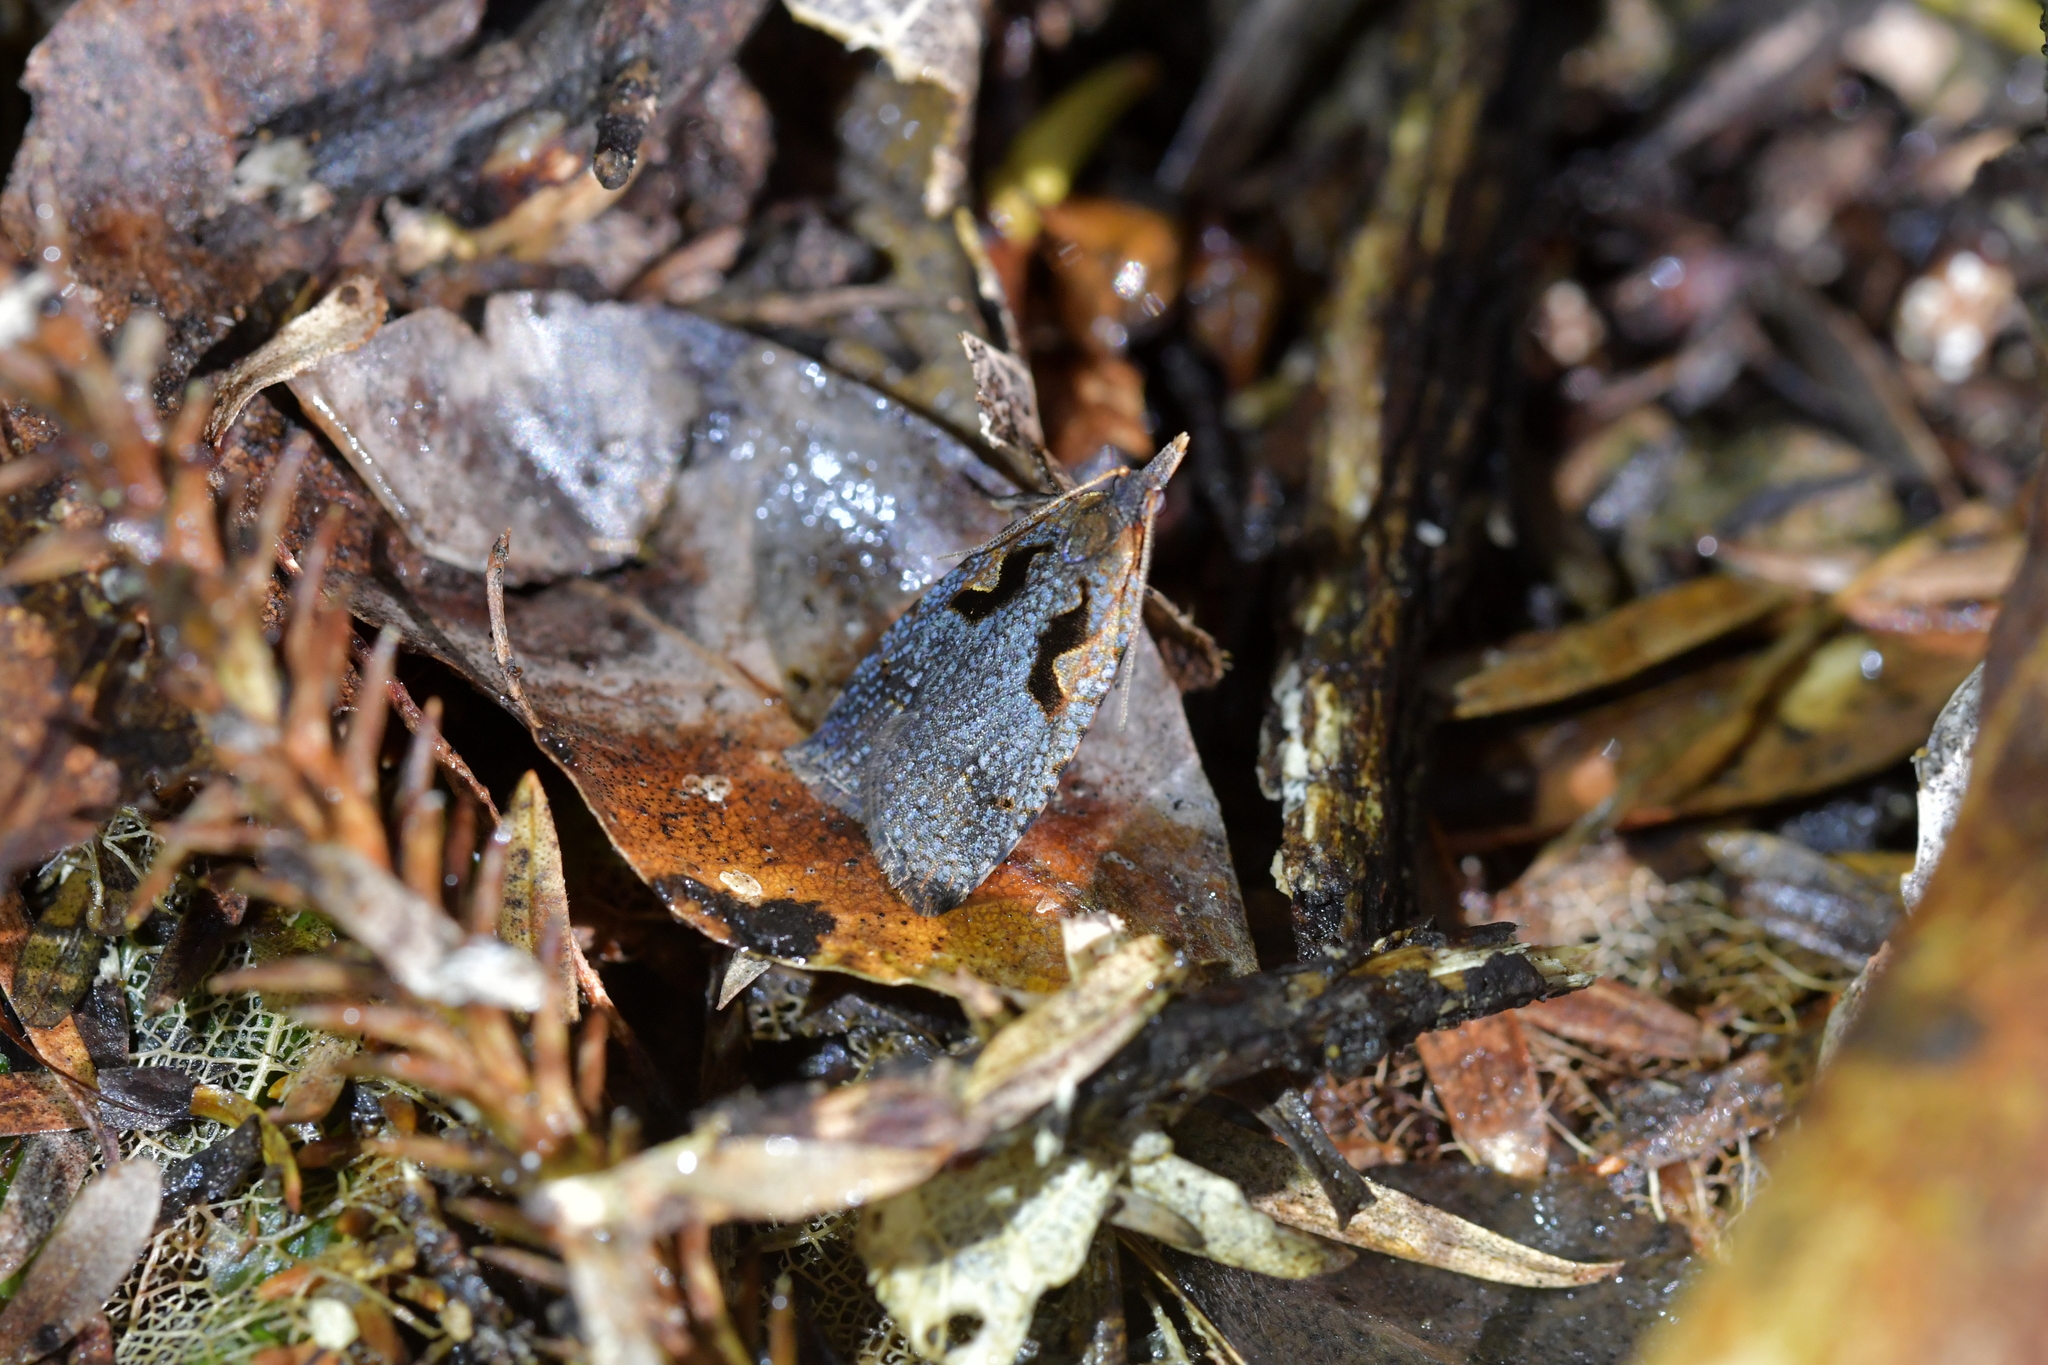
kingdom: Animalia
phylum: Arthropoda
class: Insecta
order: Lepidoptera
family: Tortricidae
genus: Cnephasia
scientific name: Cnephasia jactatana
